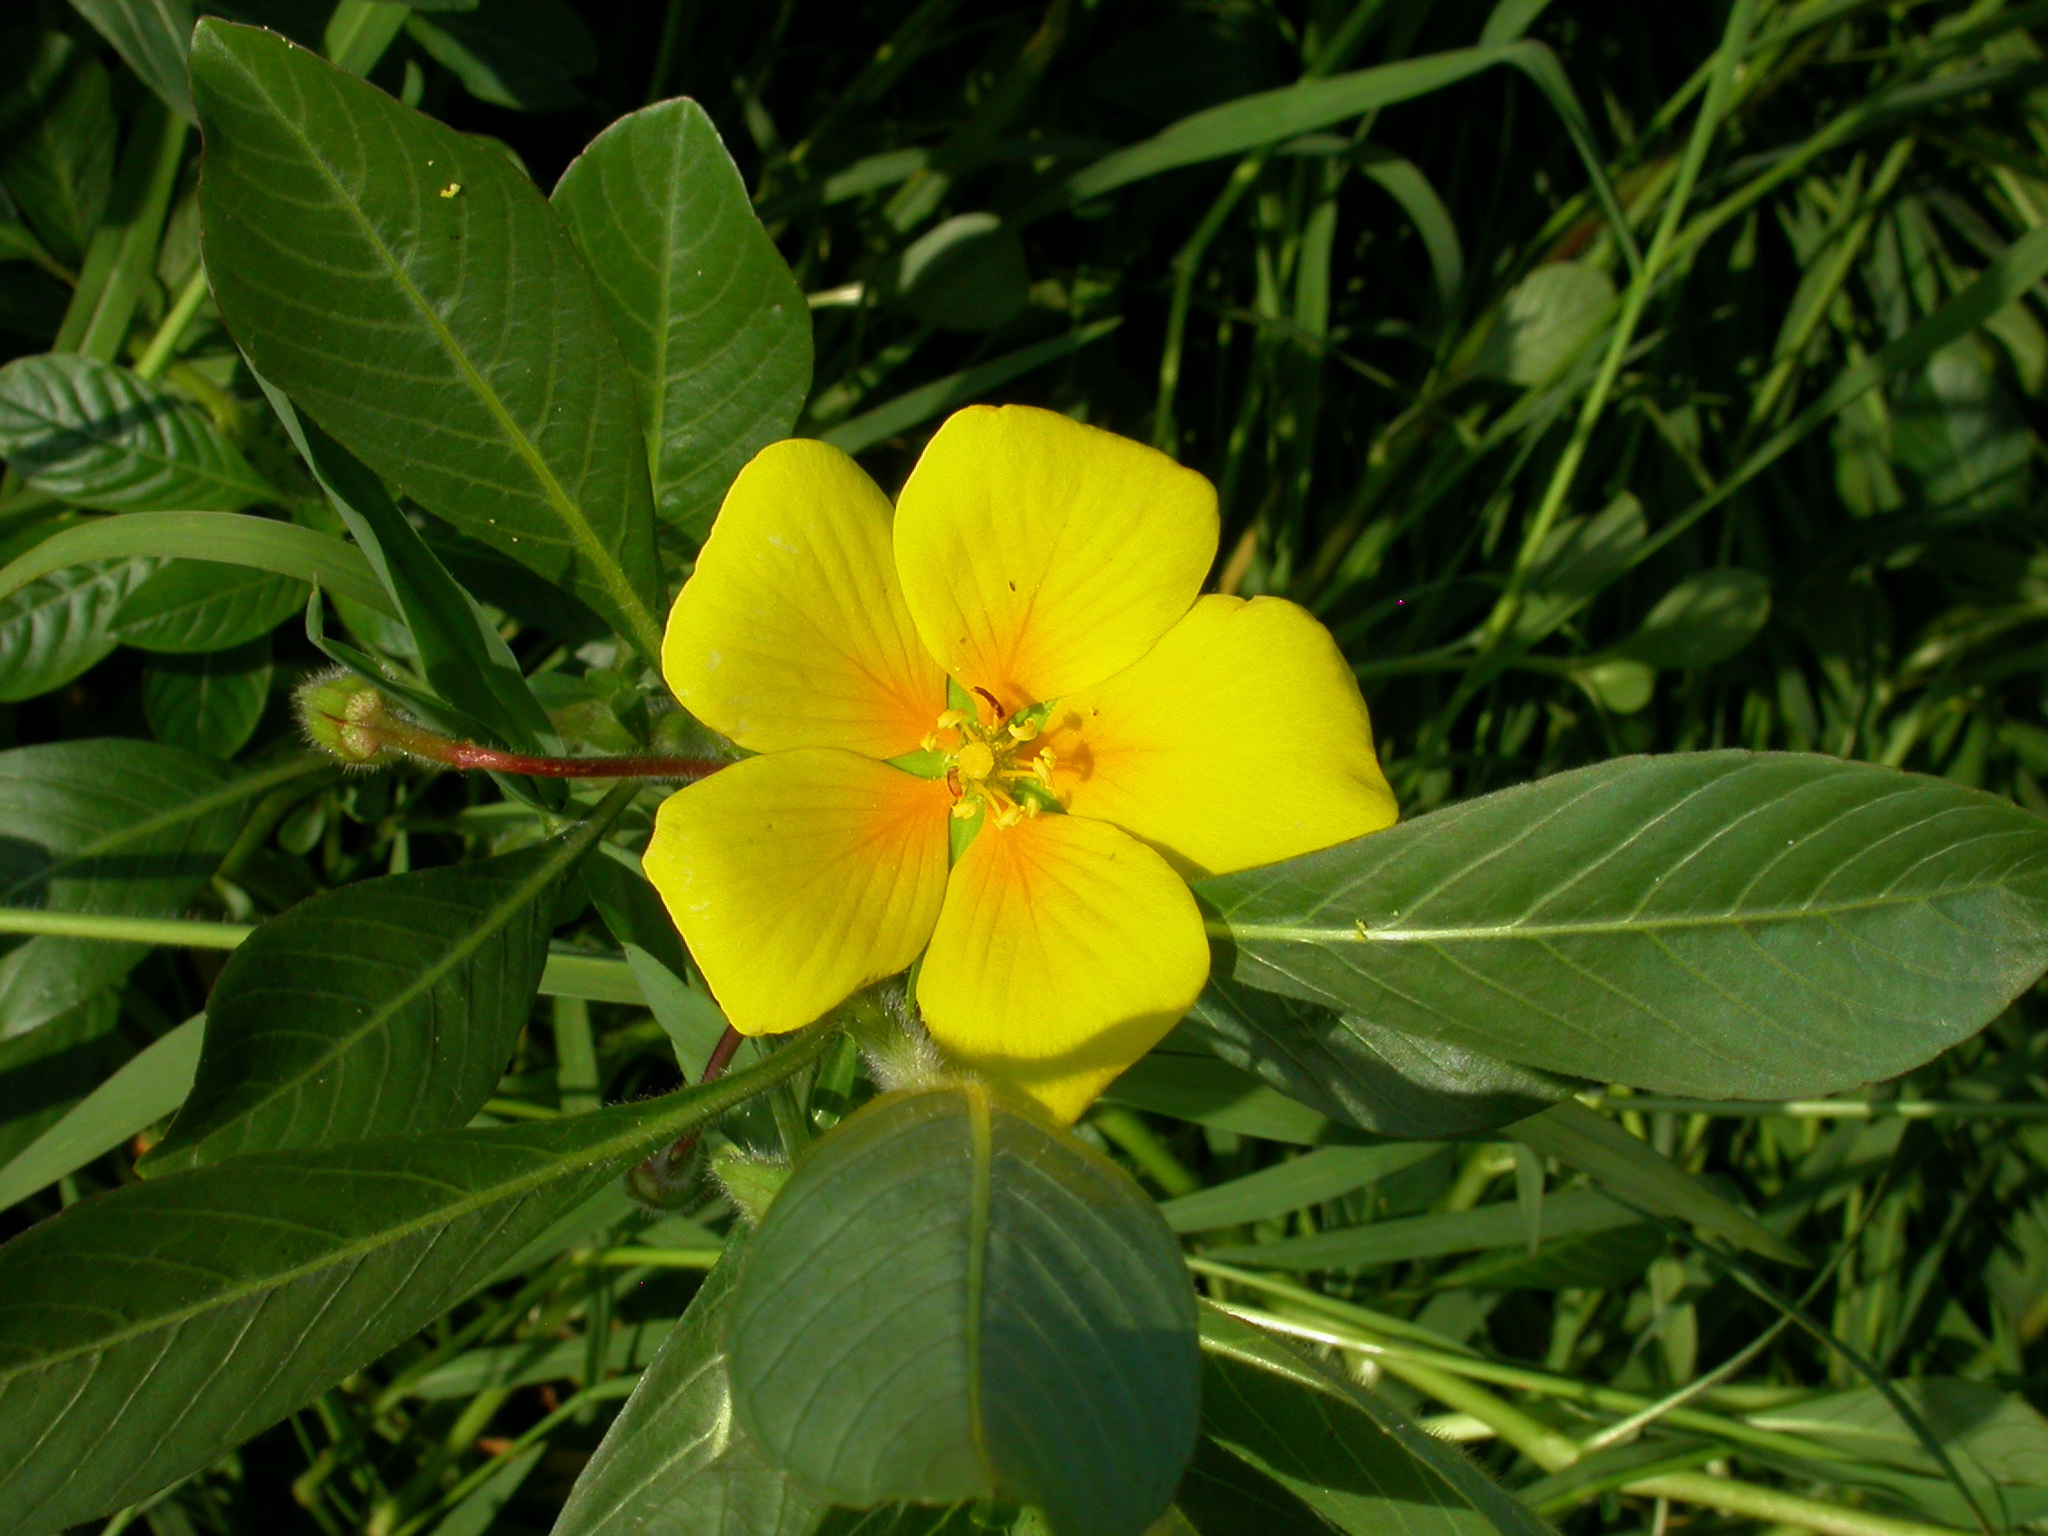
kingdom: Plantae
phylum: Tracheophyta
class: Magnoliopsida
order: Myrtales
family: Onagraceae
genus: Ludwigia
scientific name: Ludwigia peploides
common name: Floating primrose-willow
